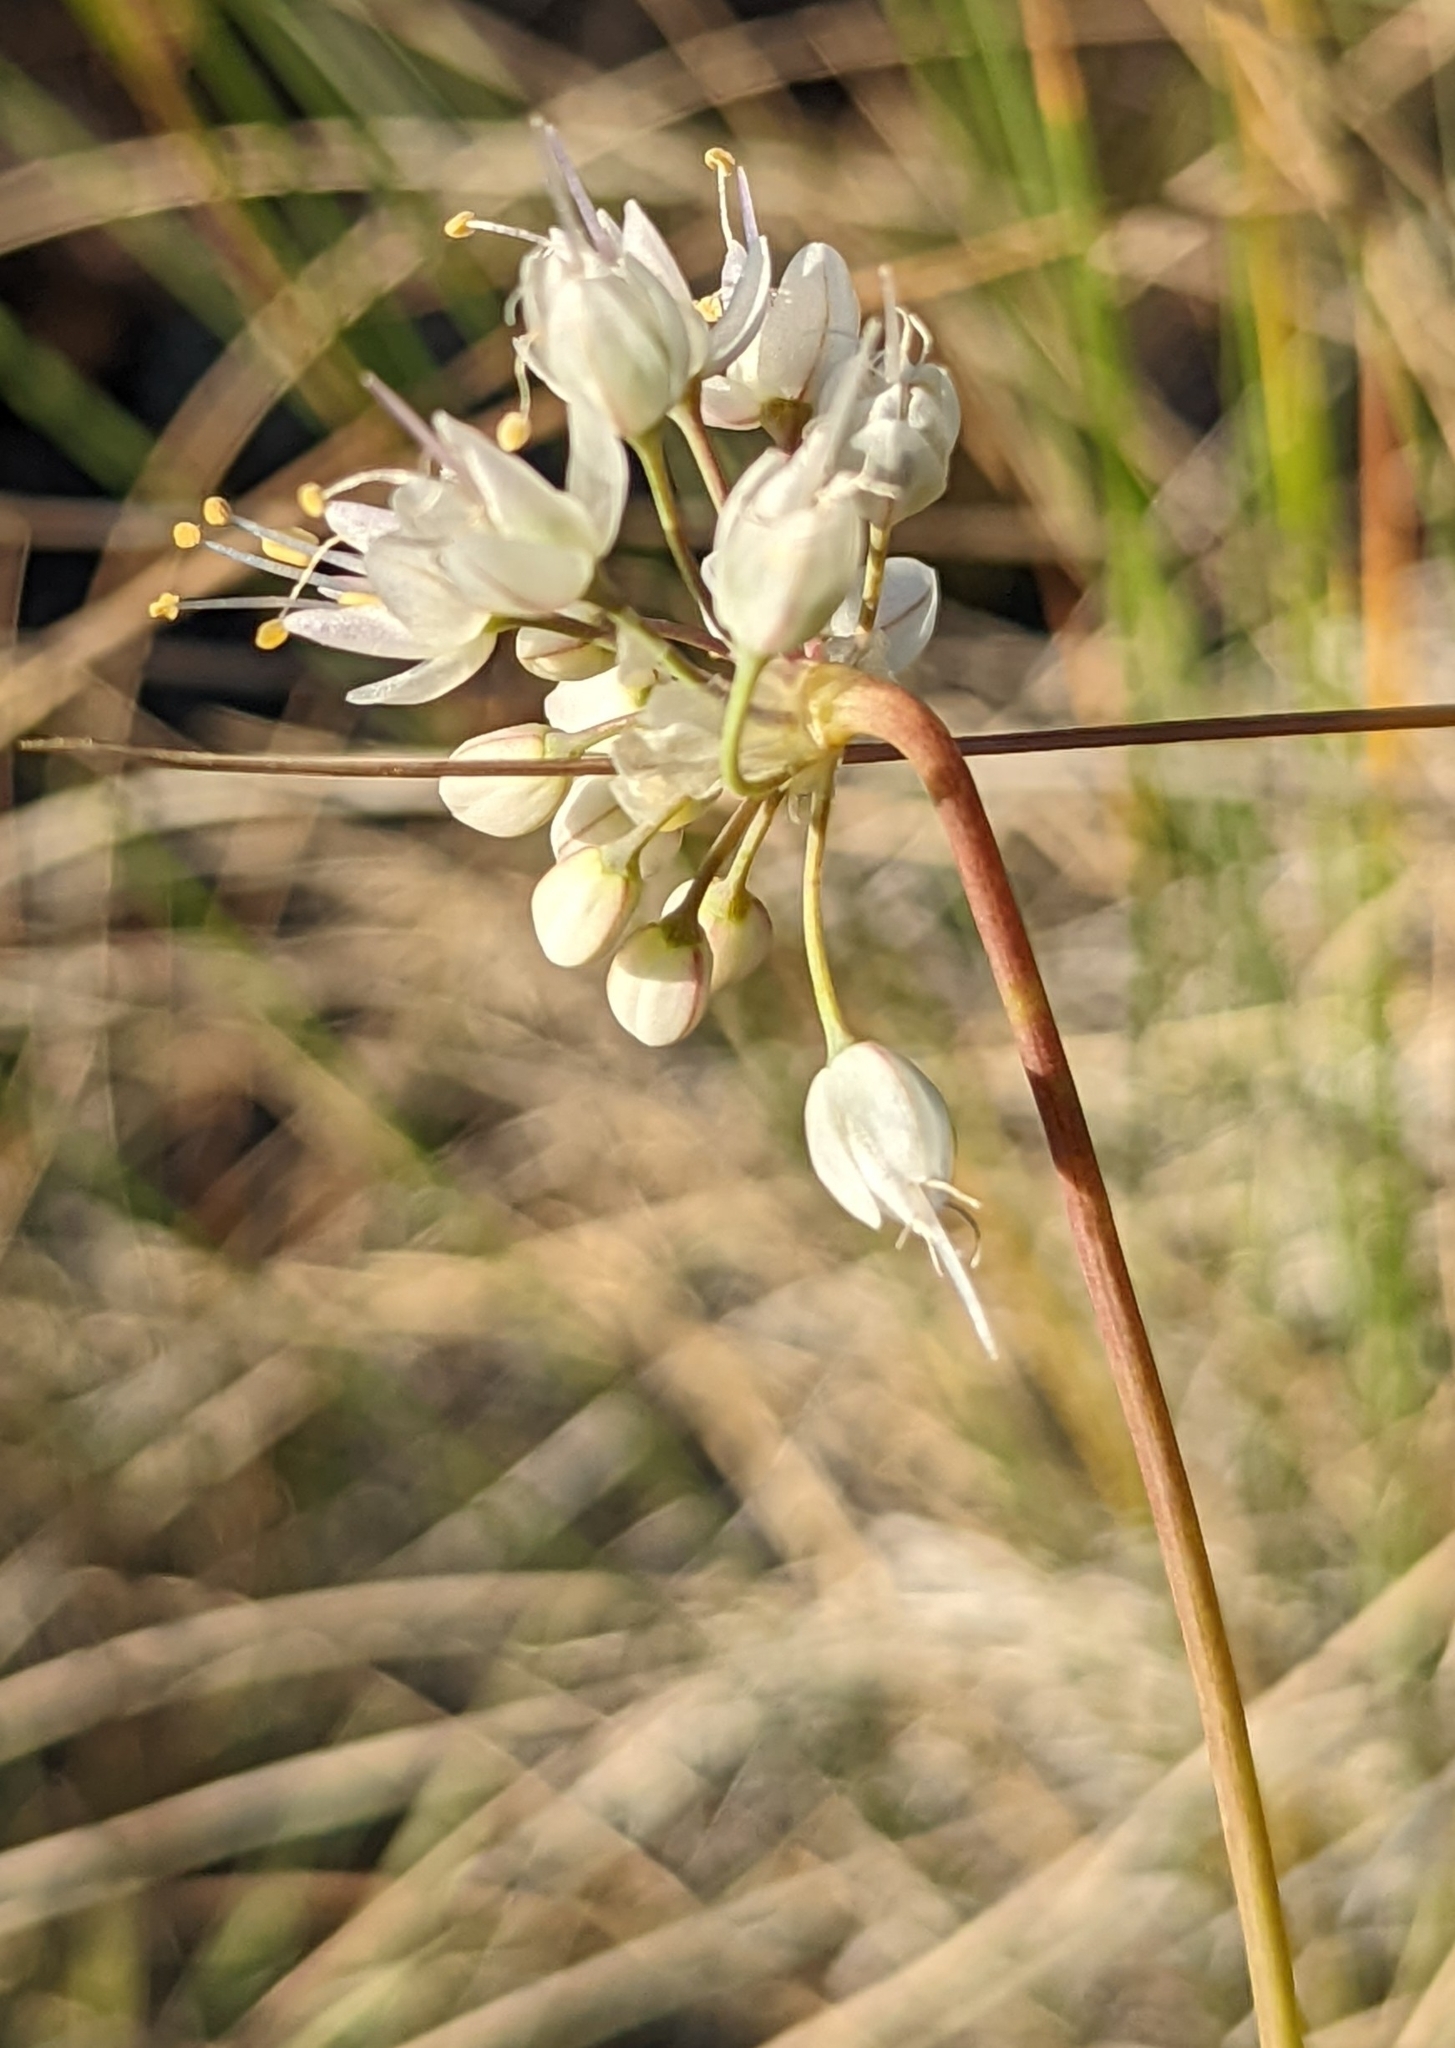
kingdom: Plantae
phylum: Tracheophyta
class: Liliopsida
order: Asparagales
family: Amaryllidaceae
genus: Allium
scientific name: Allium cernuum
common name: Nodding onion
